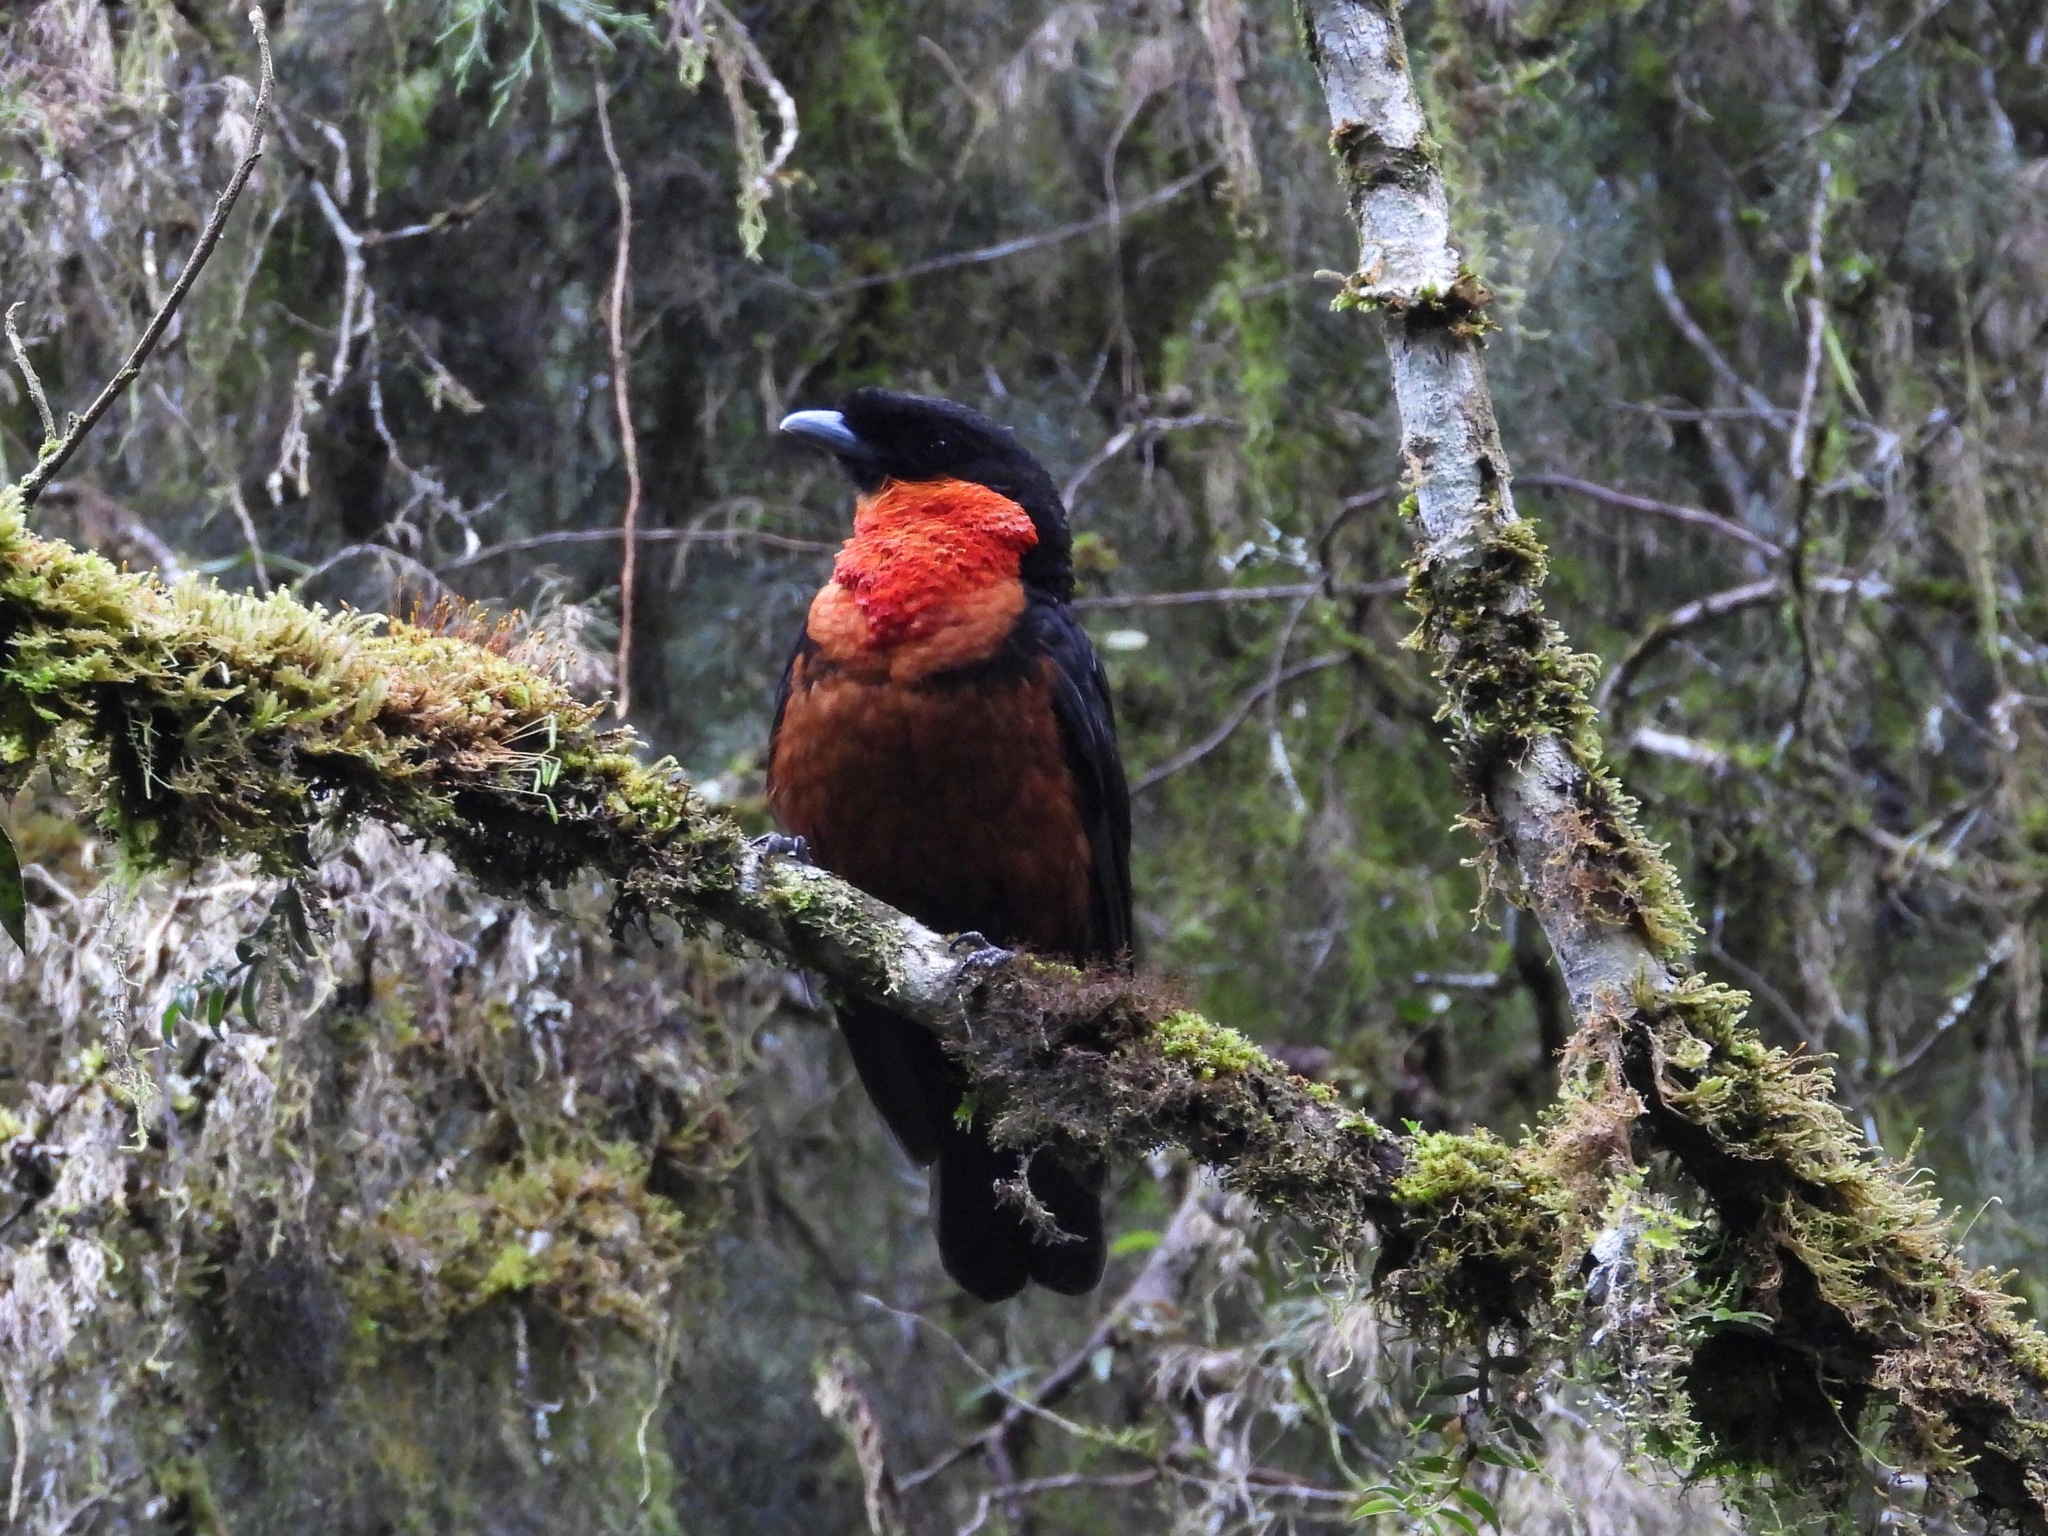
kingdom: Animalia
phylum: Chordata
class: Aves
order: Passeriformes
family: Cotingidae
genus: Pyroderus
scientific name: Pyroderus scutatus
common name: Red-ruffed fruitcrow
